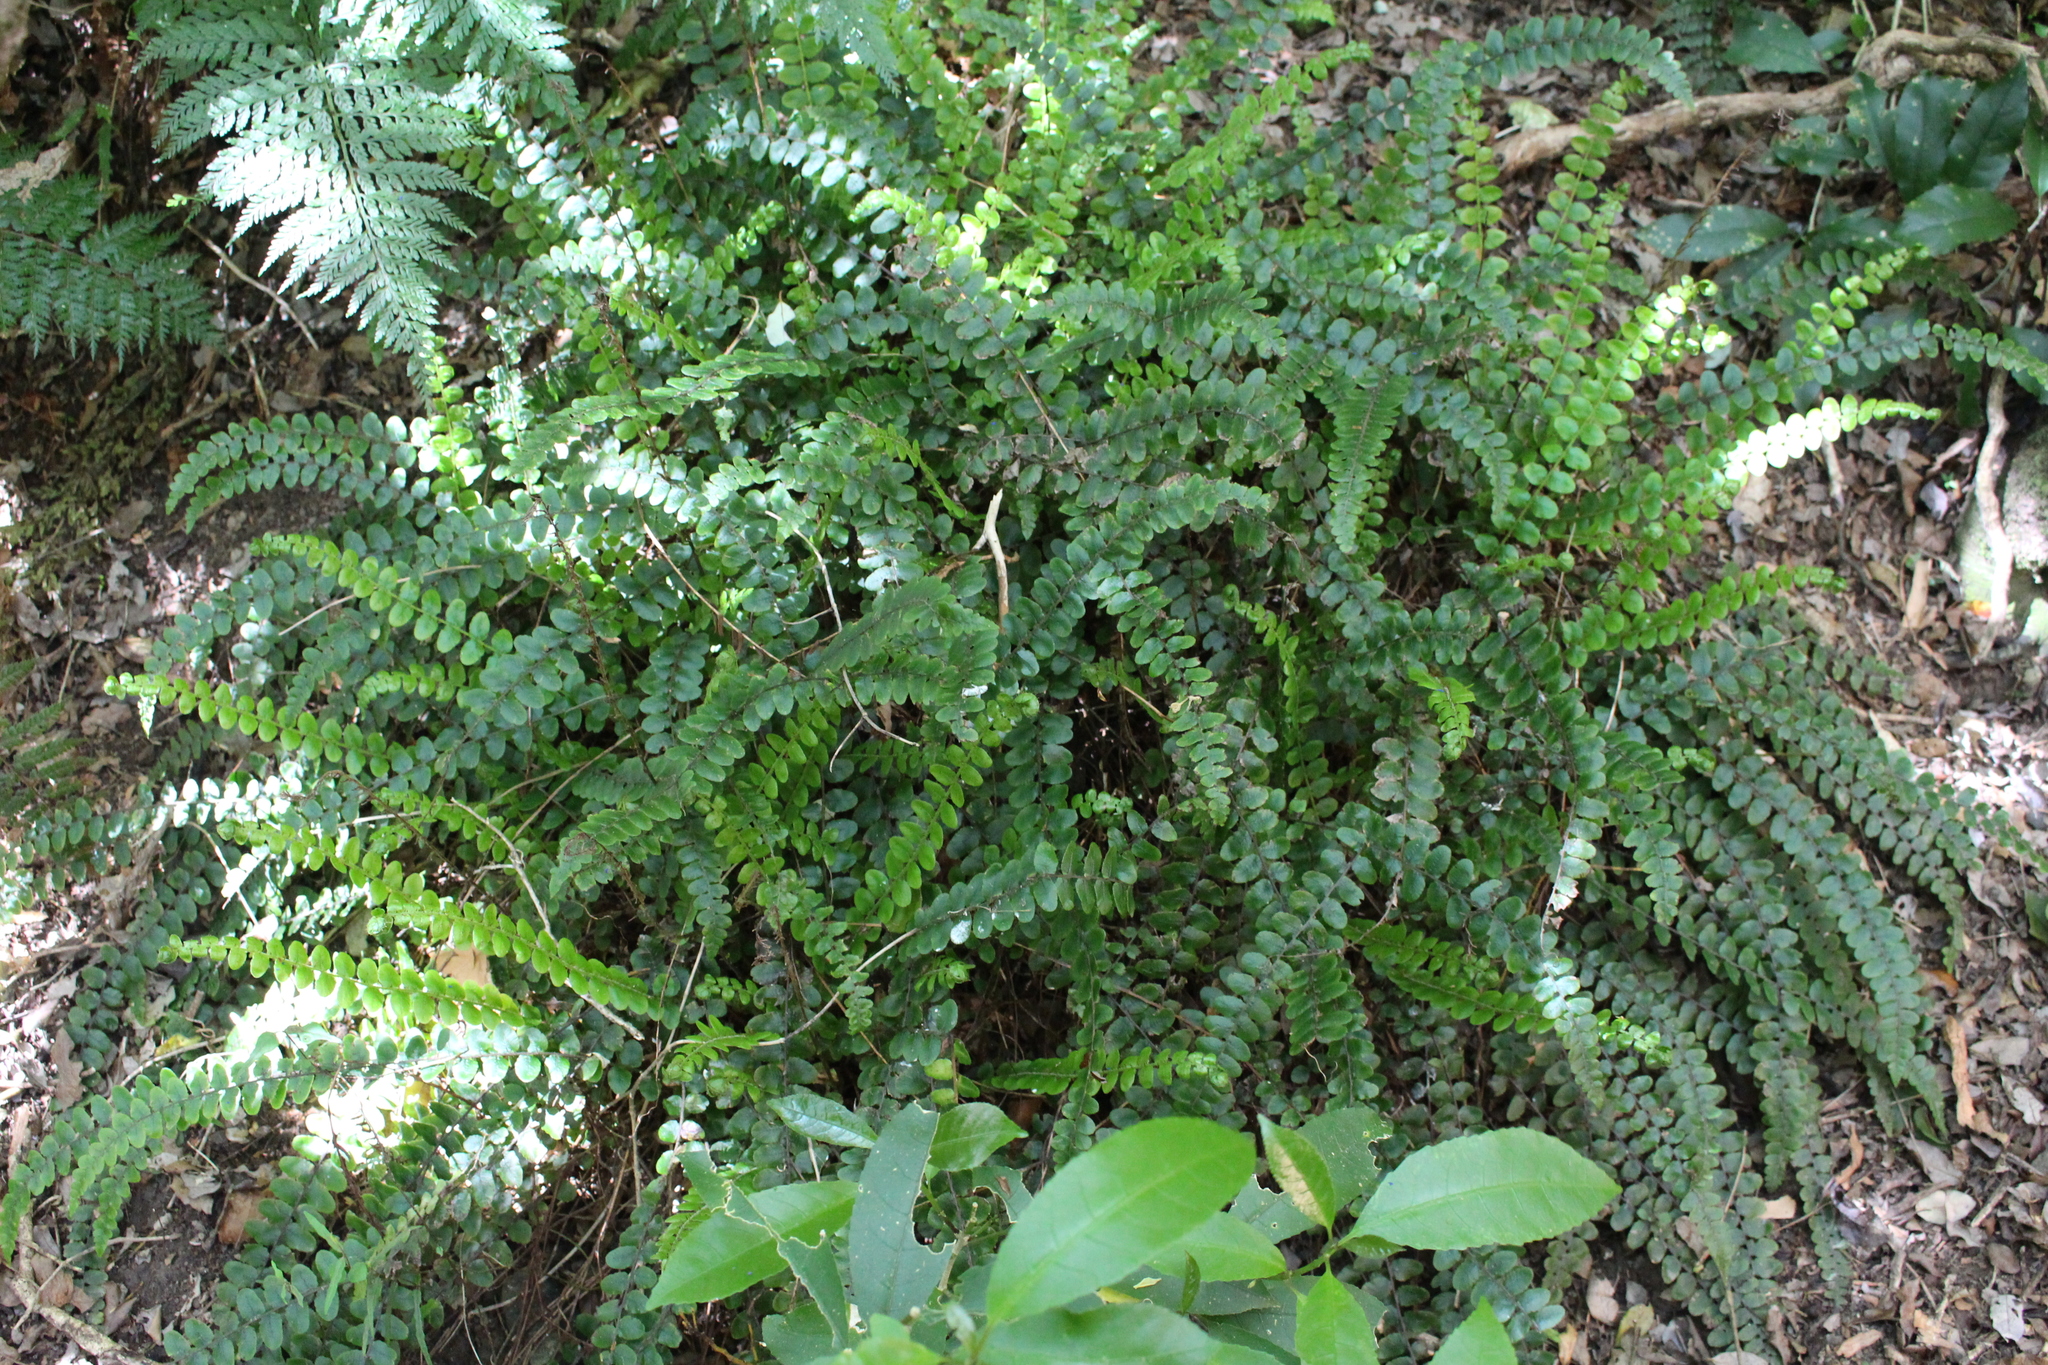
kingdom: Plantae
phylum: Tracheophyta
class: Polypodiopsida
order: Polypodiales
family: Blechnaceae
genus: Cranfillia
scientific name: Cranfillia fluviatilis
